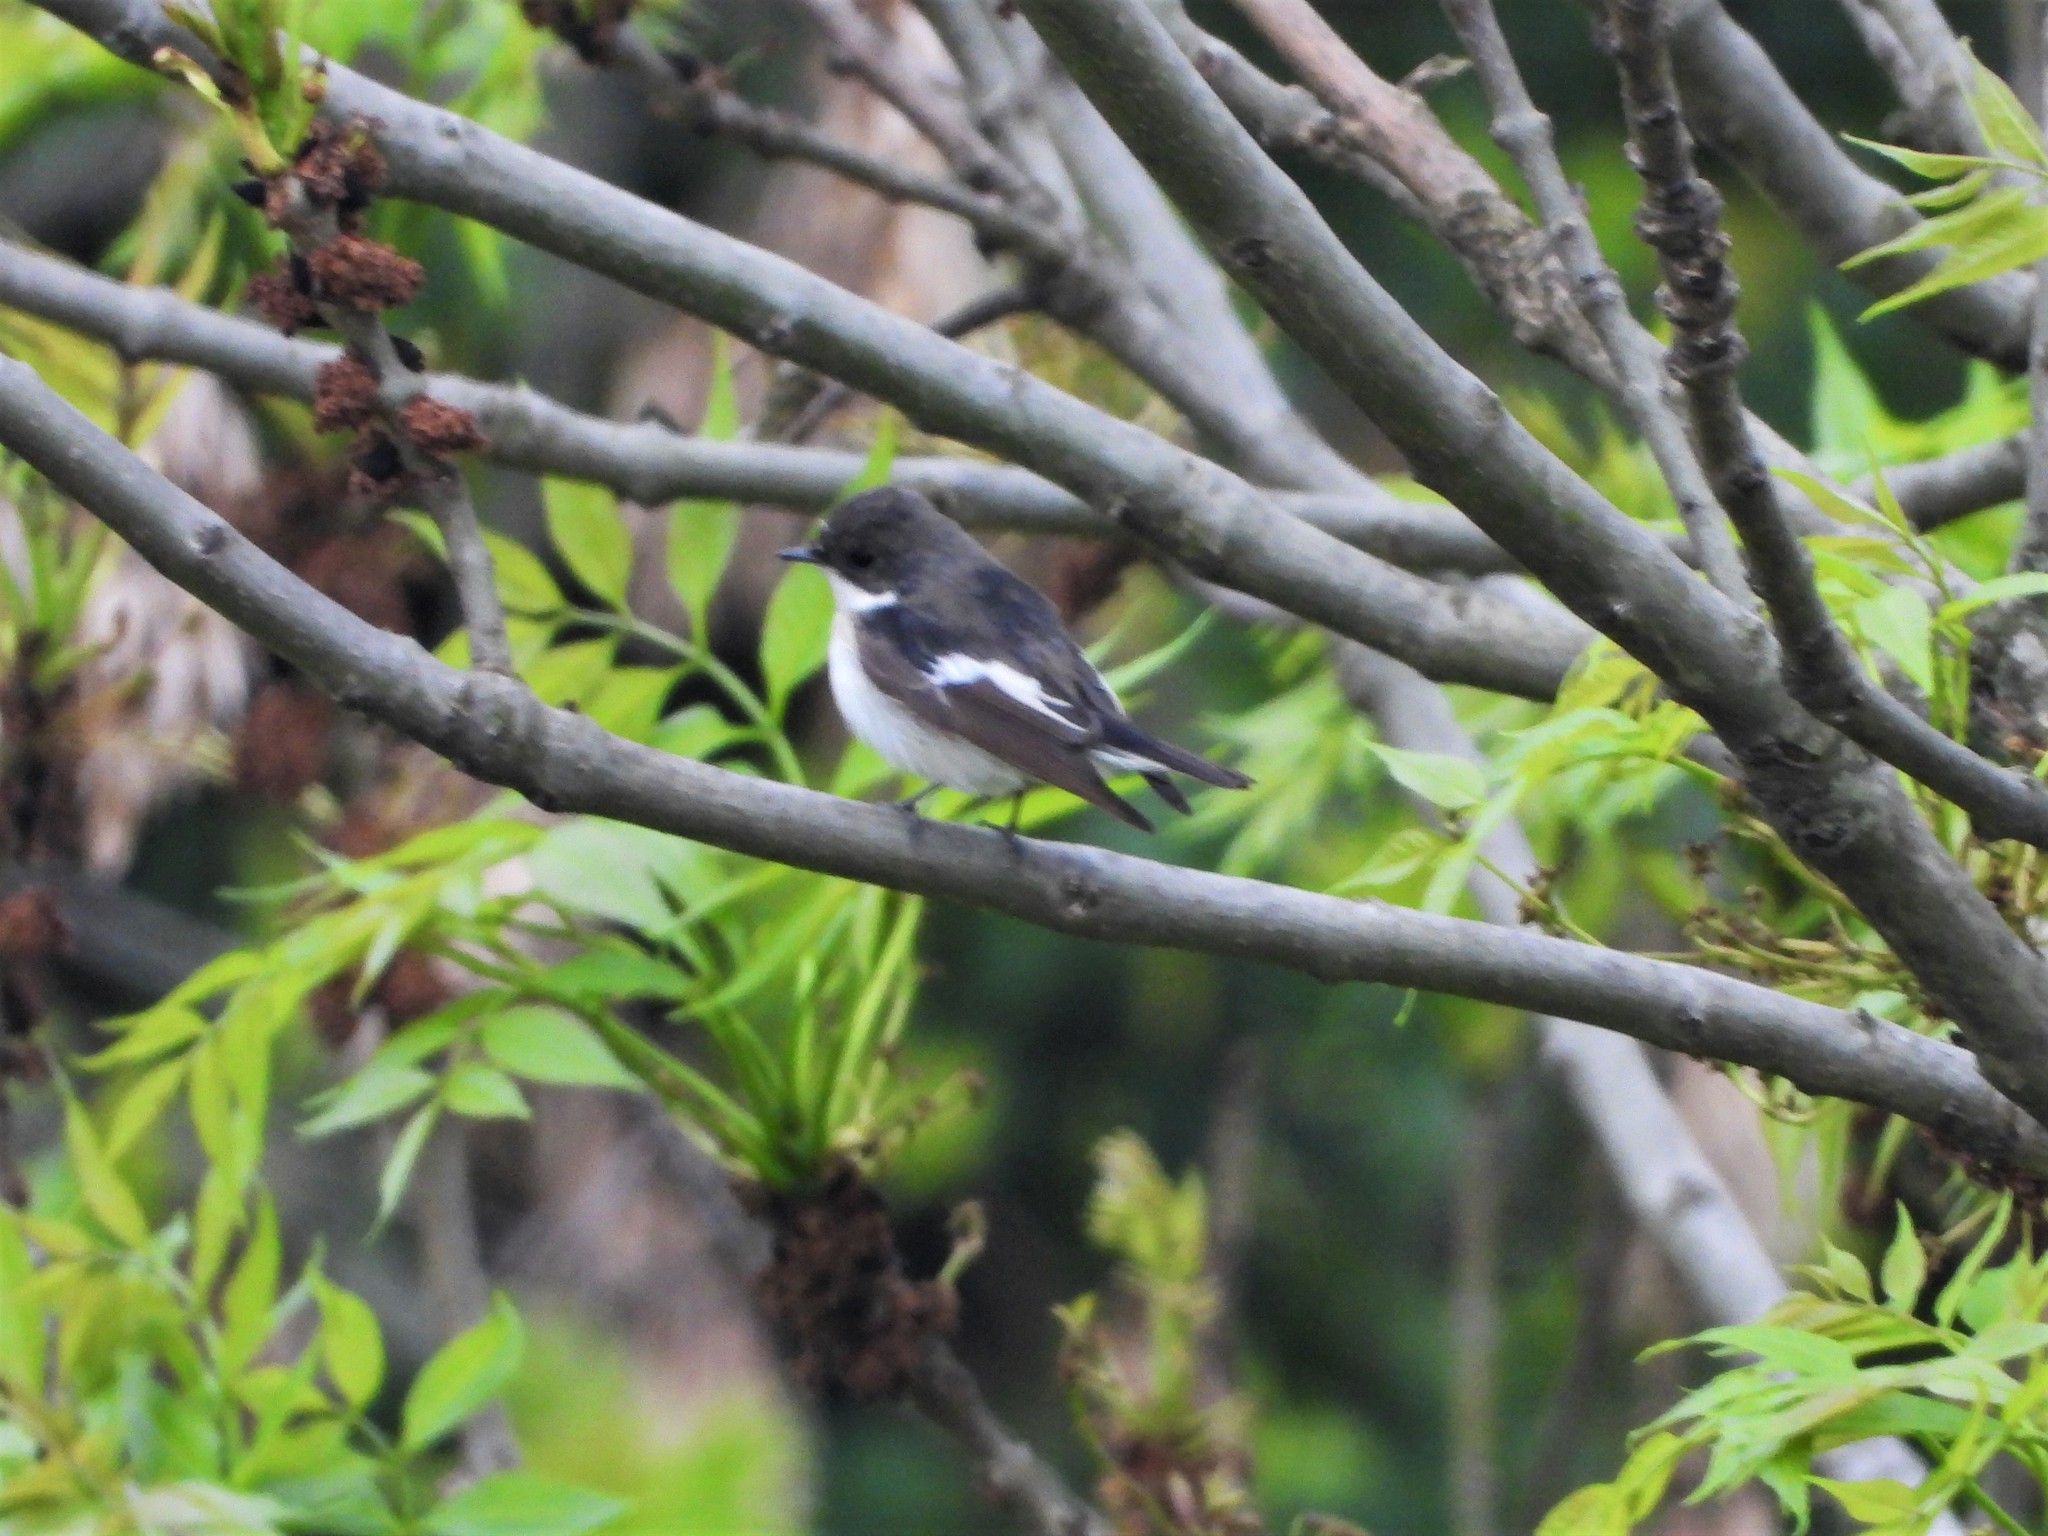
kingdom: Animalia
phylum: Chordata
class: Aves
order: Passeriformes
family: Muscicapidae
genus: Ficedula
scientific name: Ficedula hypoleuca
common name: European pied flycatcher
